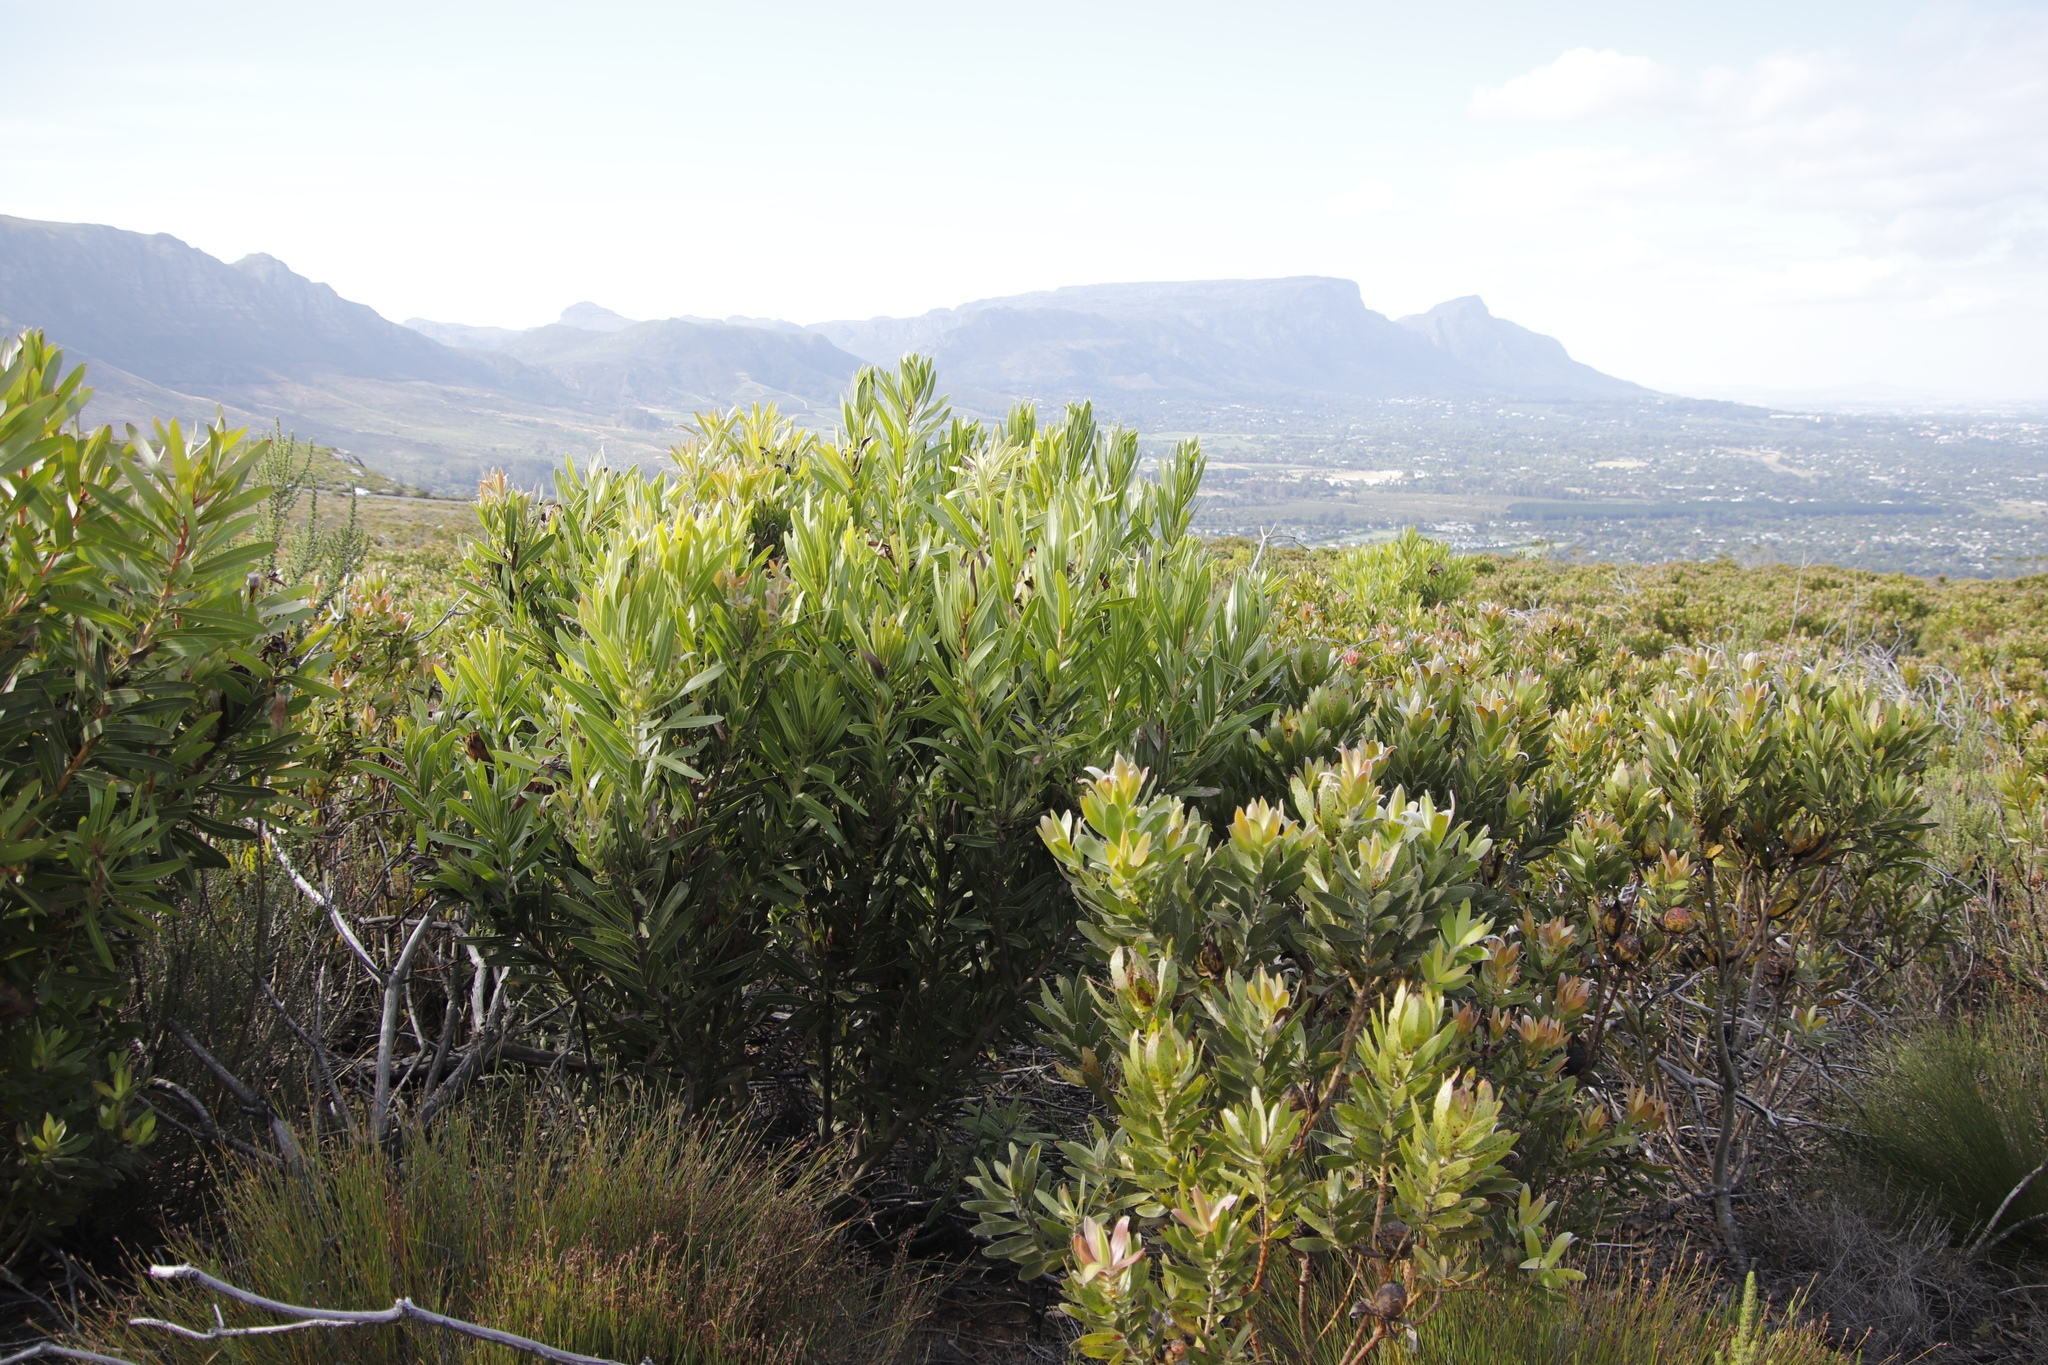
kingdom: Plantae
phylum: Tracheophyta
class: Magnoliopsida
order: Proteales
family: Proteaceae
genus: Protea
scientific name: Protea lepidocarpodendron
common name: Black-bearded protea
